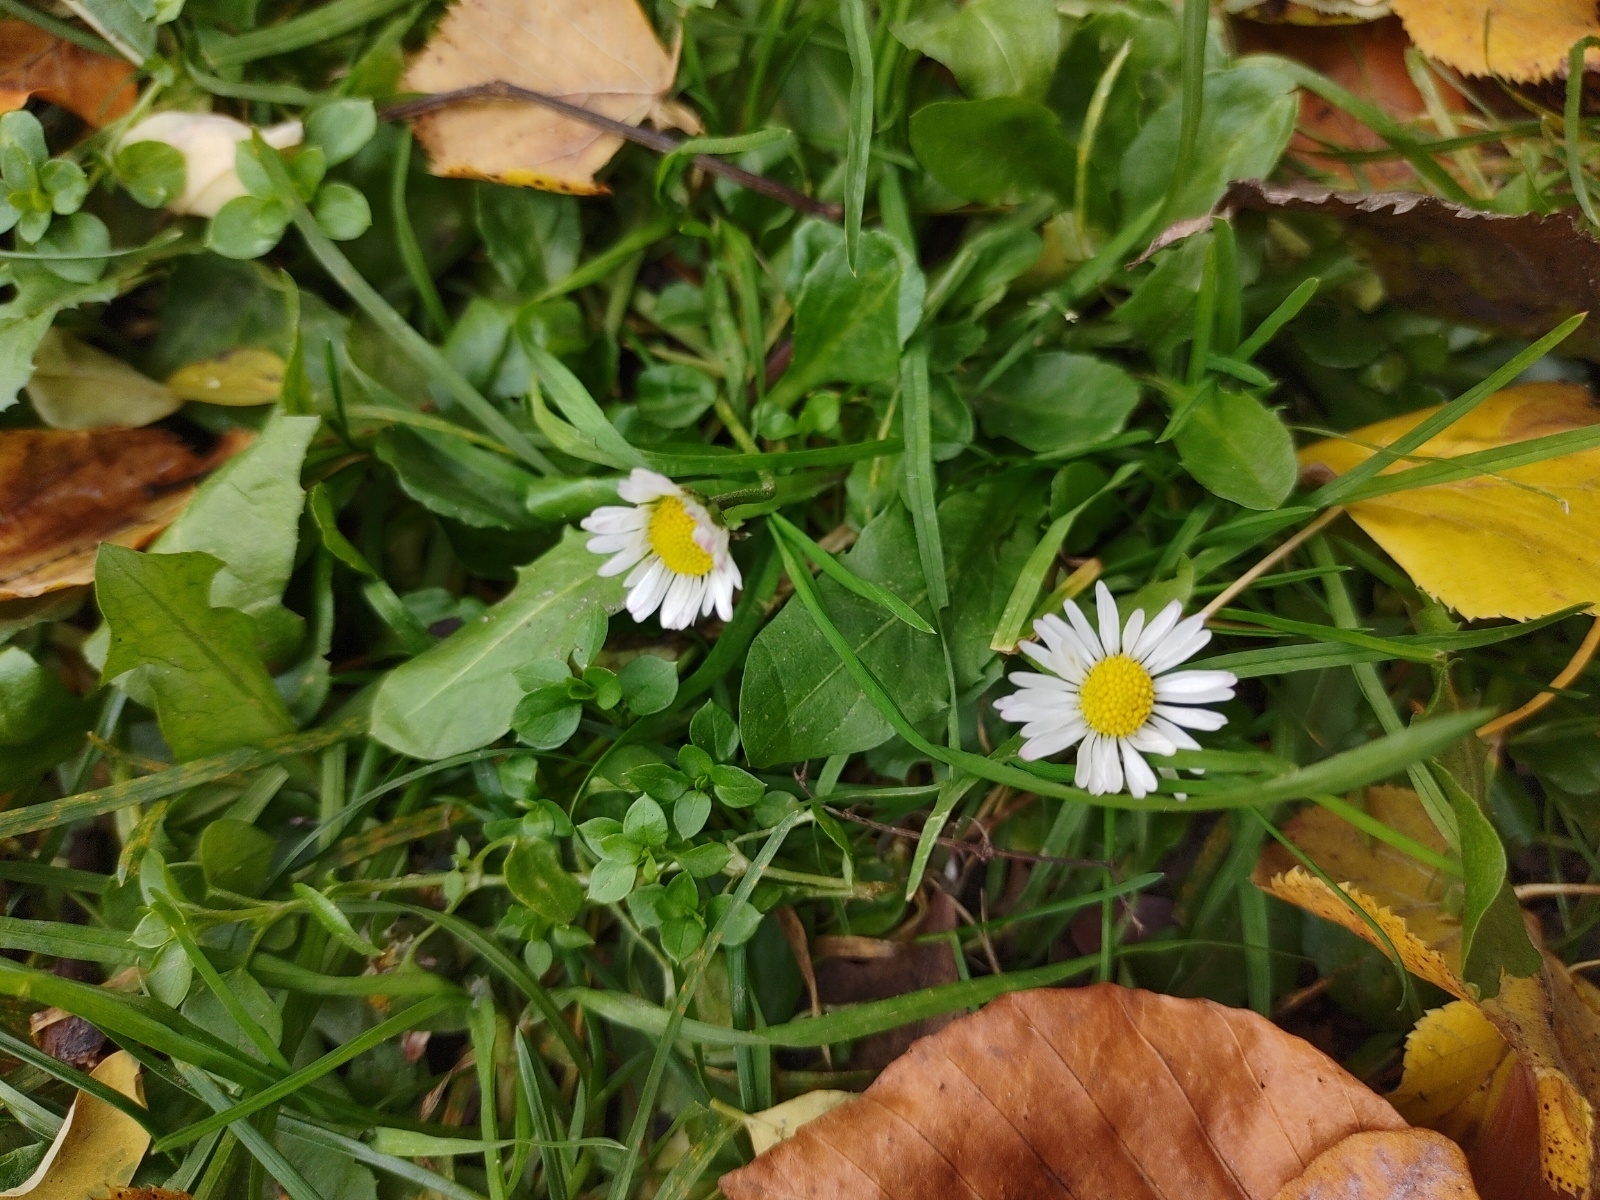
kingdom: Plantae
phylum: Tracheophyta
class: Magnoliopsida
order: Asterales
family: Asteraceae
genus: Bellis
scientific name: Bellis perennis
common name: Lawndaisy
